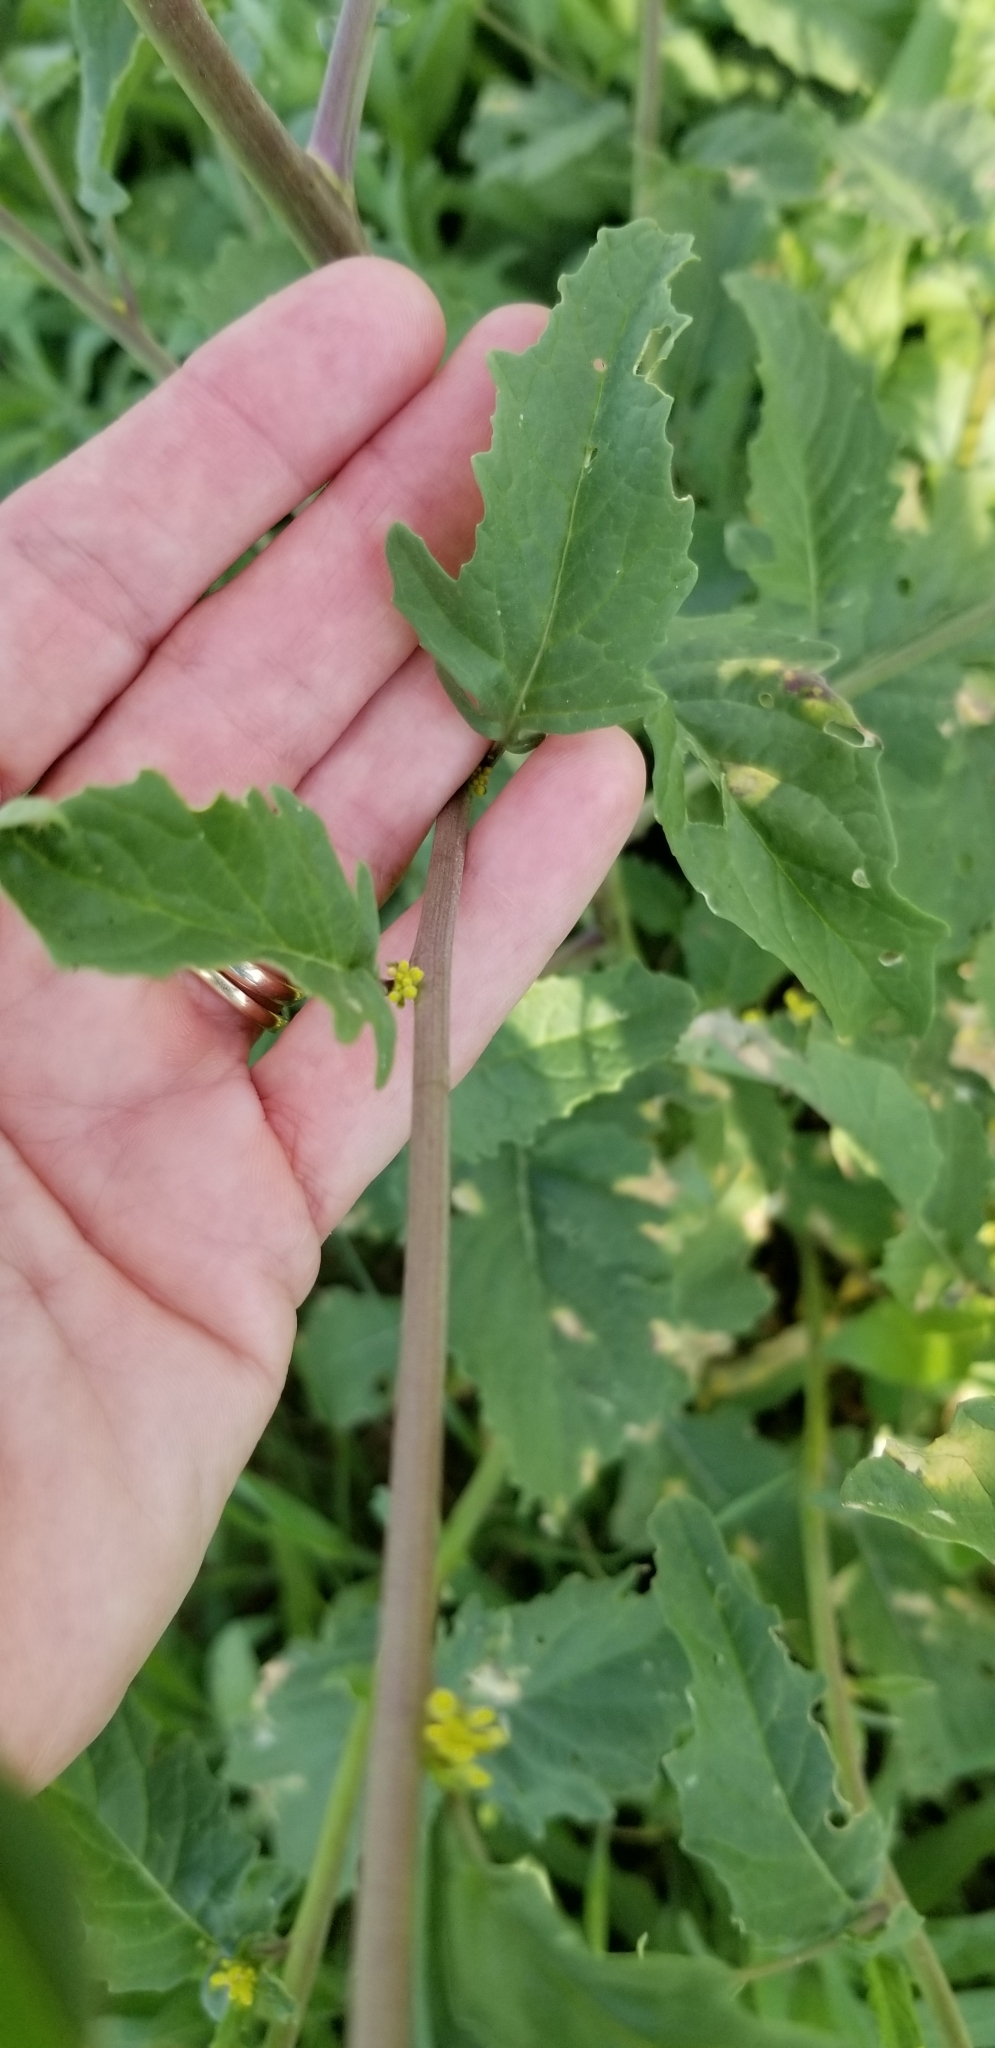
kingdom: Plantae
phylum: Tracheophyta
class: Magnoliopsida
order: Brassicales
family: Brassicaceae
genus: Rapistrum
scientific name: Rapistrum rugosum
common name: Annual bastardcabbage
